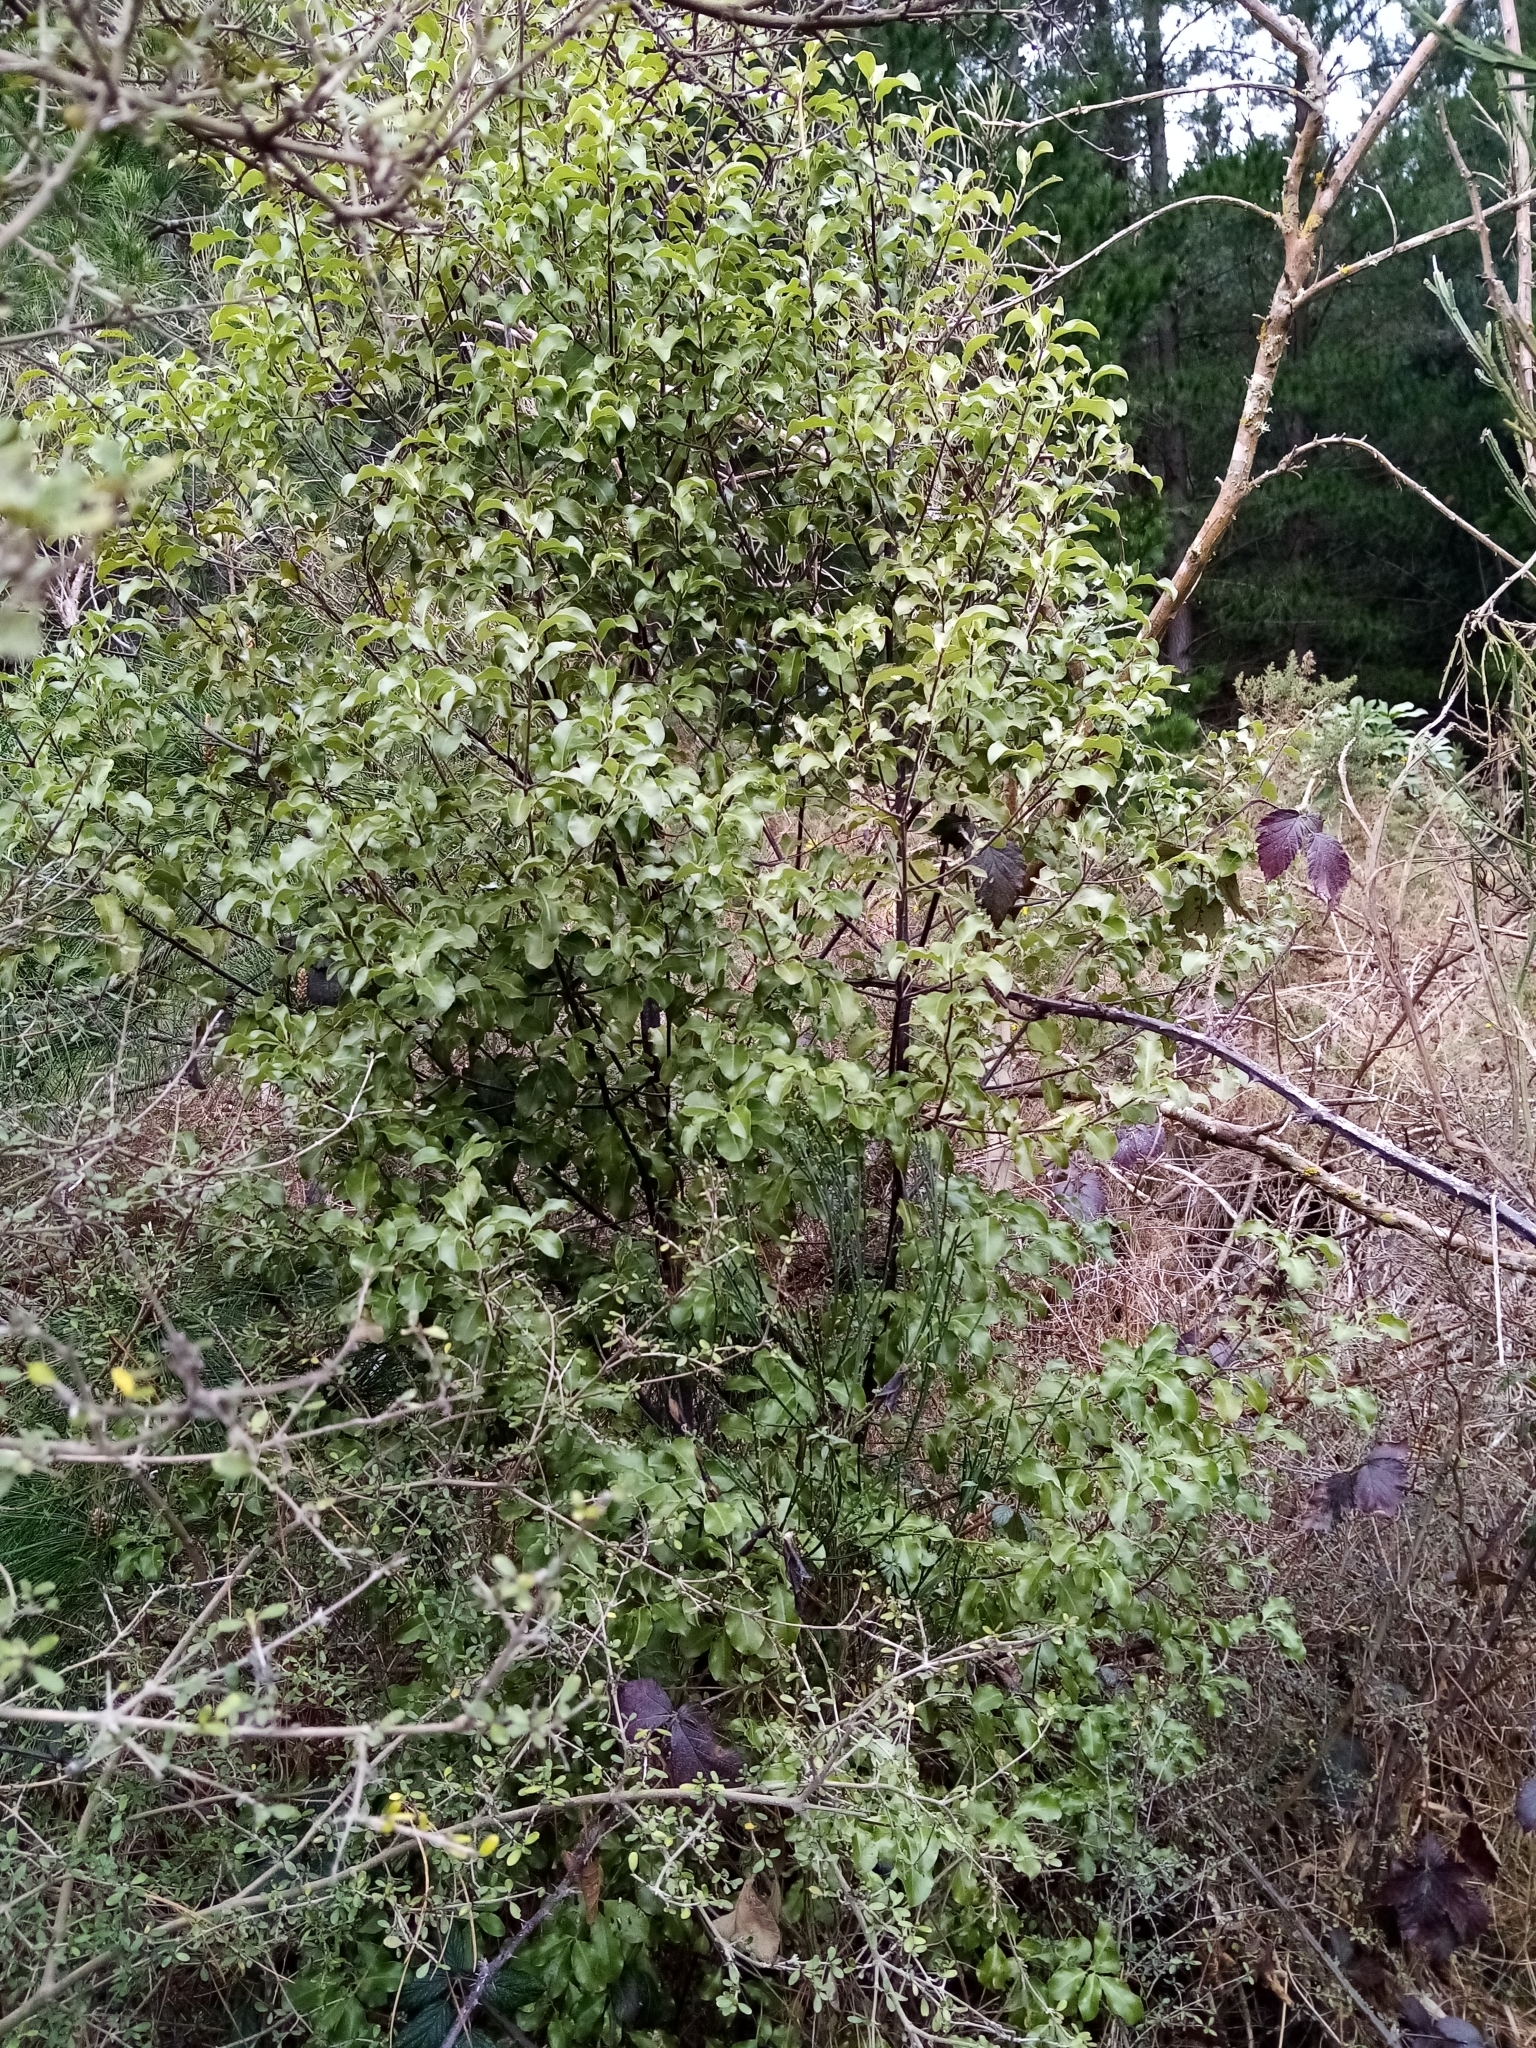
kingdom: Plantae
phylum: Tracheophyta
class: Magnoliopsida
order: Apiales
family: Pittosporaceae
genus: Pittosporum
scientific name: Pittosporum tenuifolium
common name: Kohuhu
